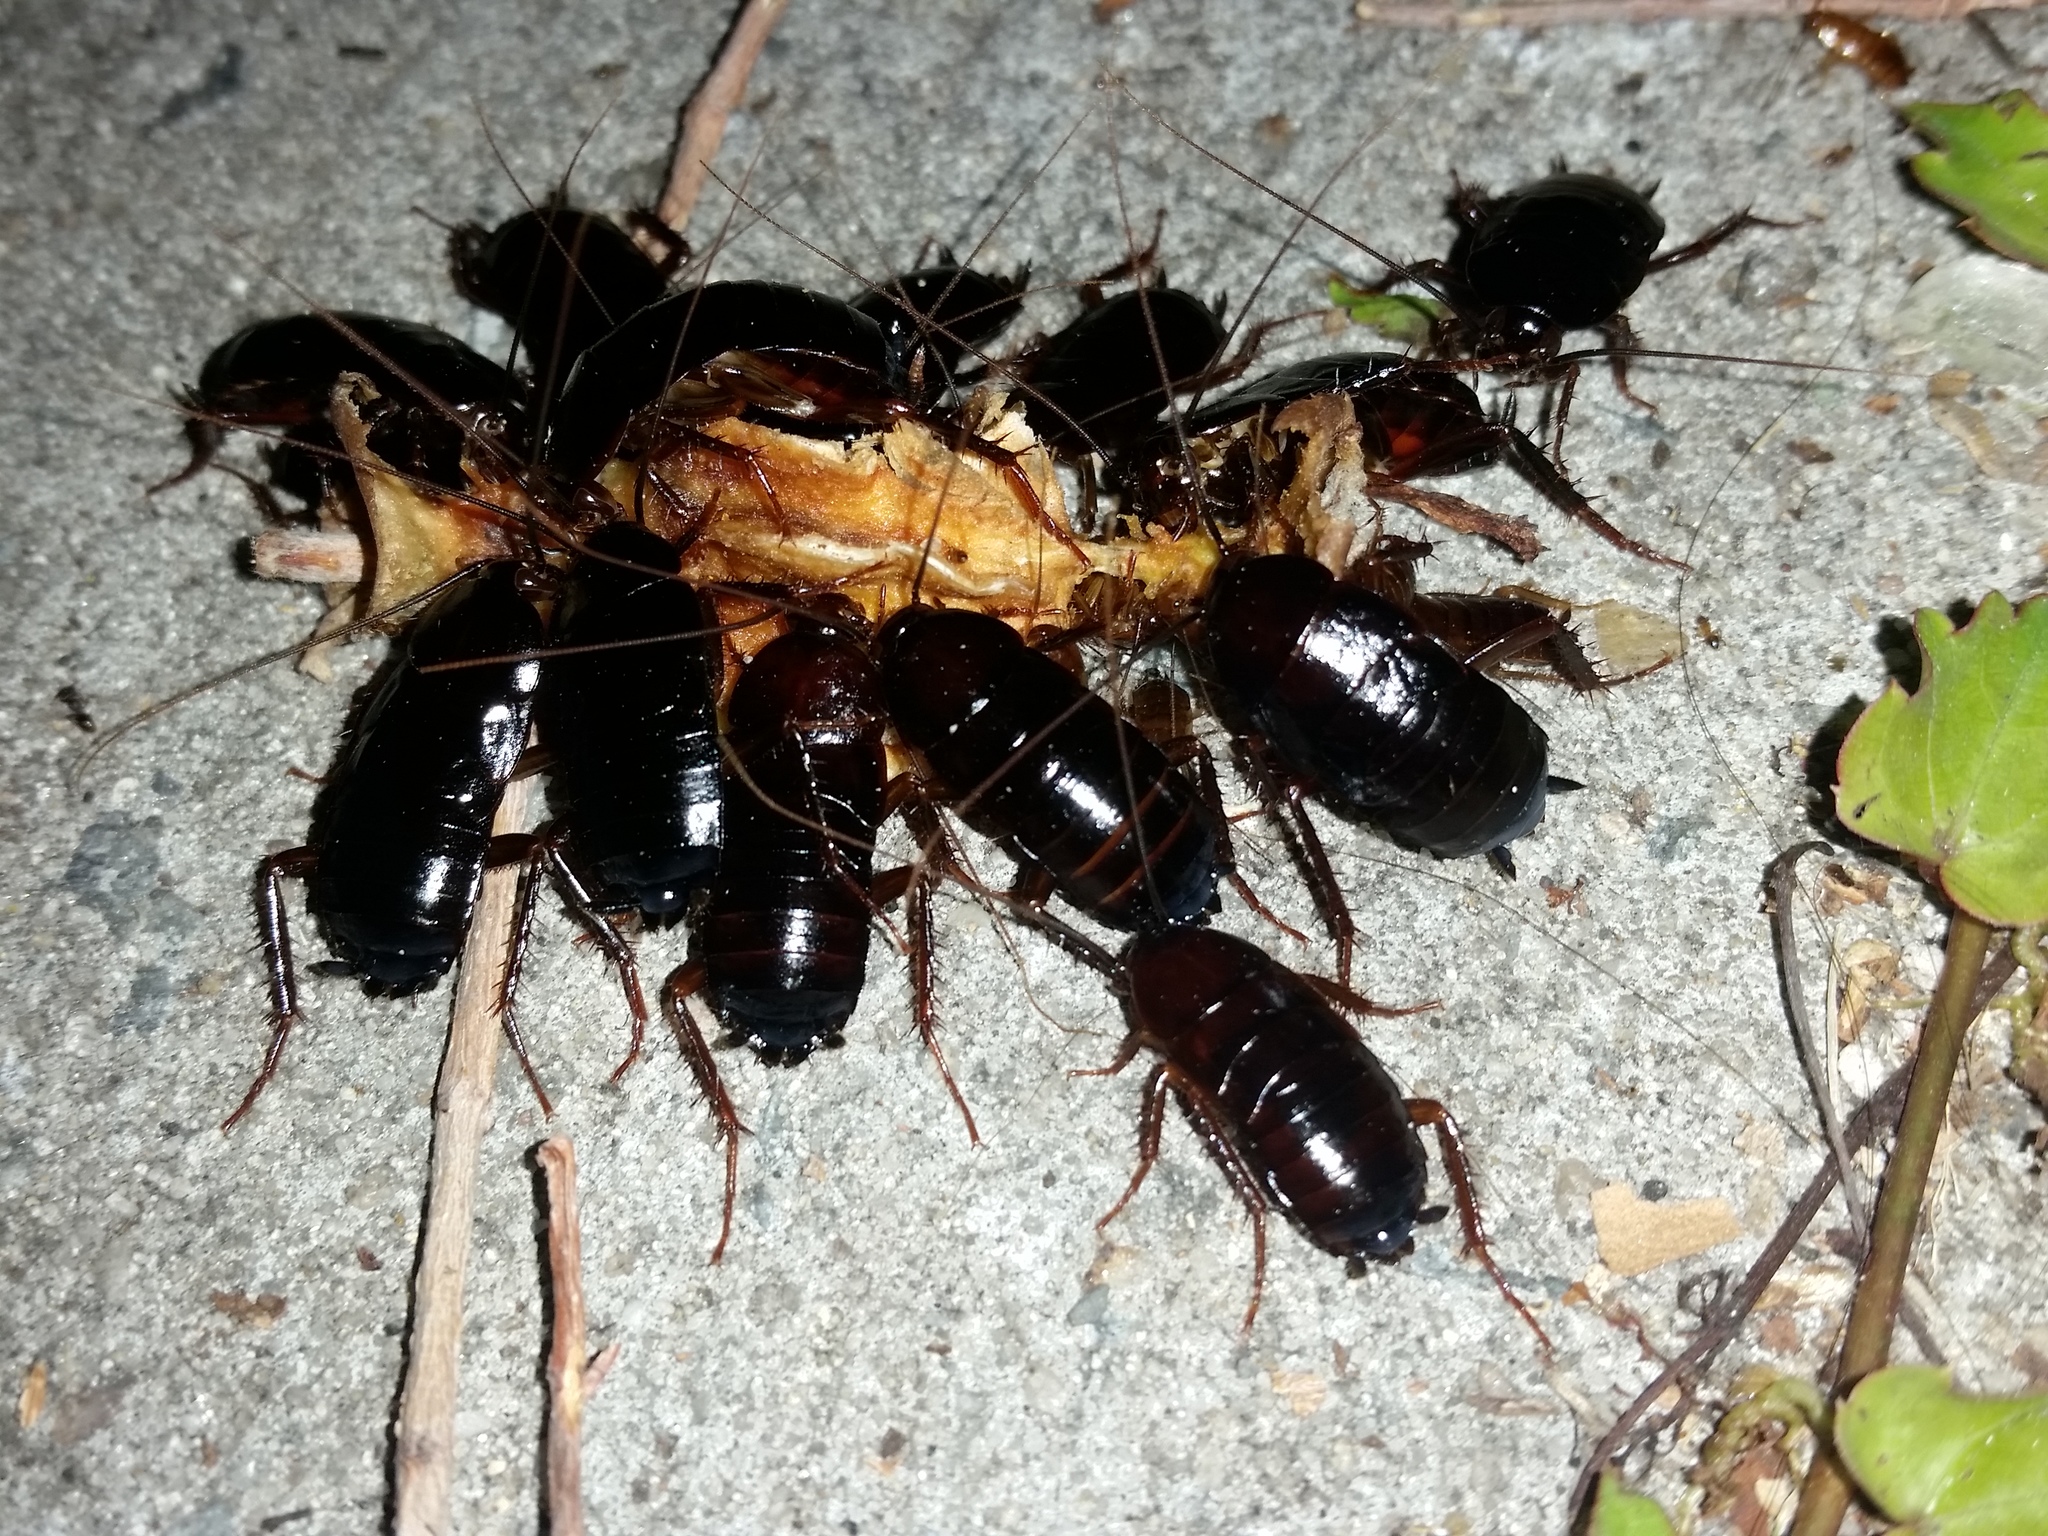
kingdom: Animalia
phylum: Arthropoda
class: Insecta
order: Blattodea
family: Blattidae
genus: Blatta
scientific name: Blatta orientalis
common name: Oriental cockroach
